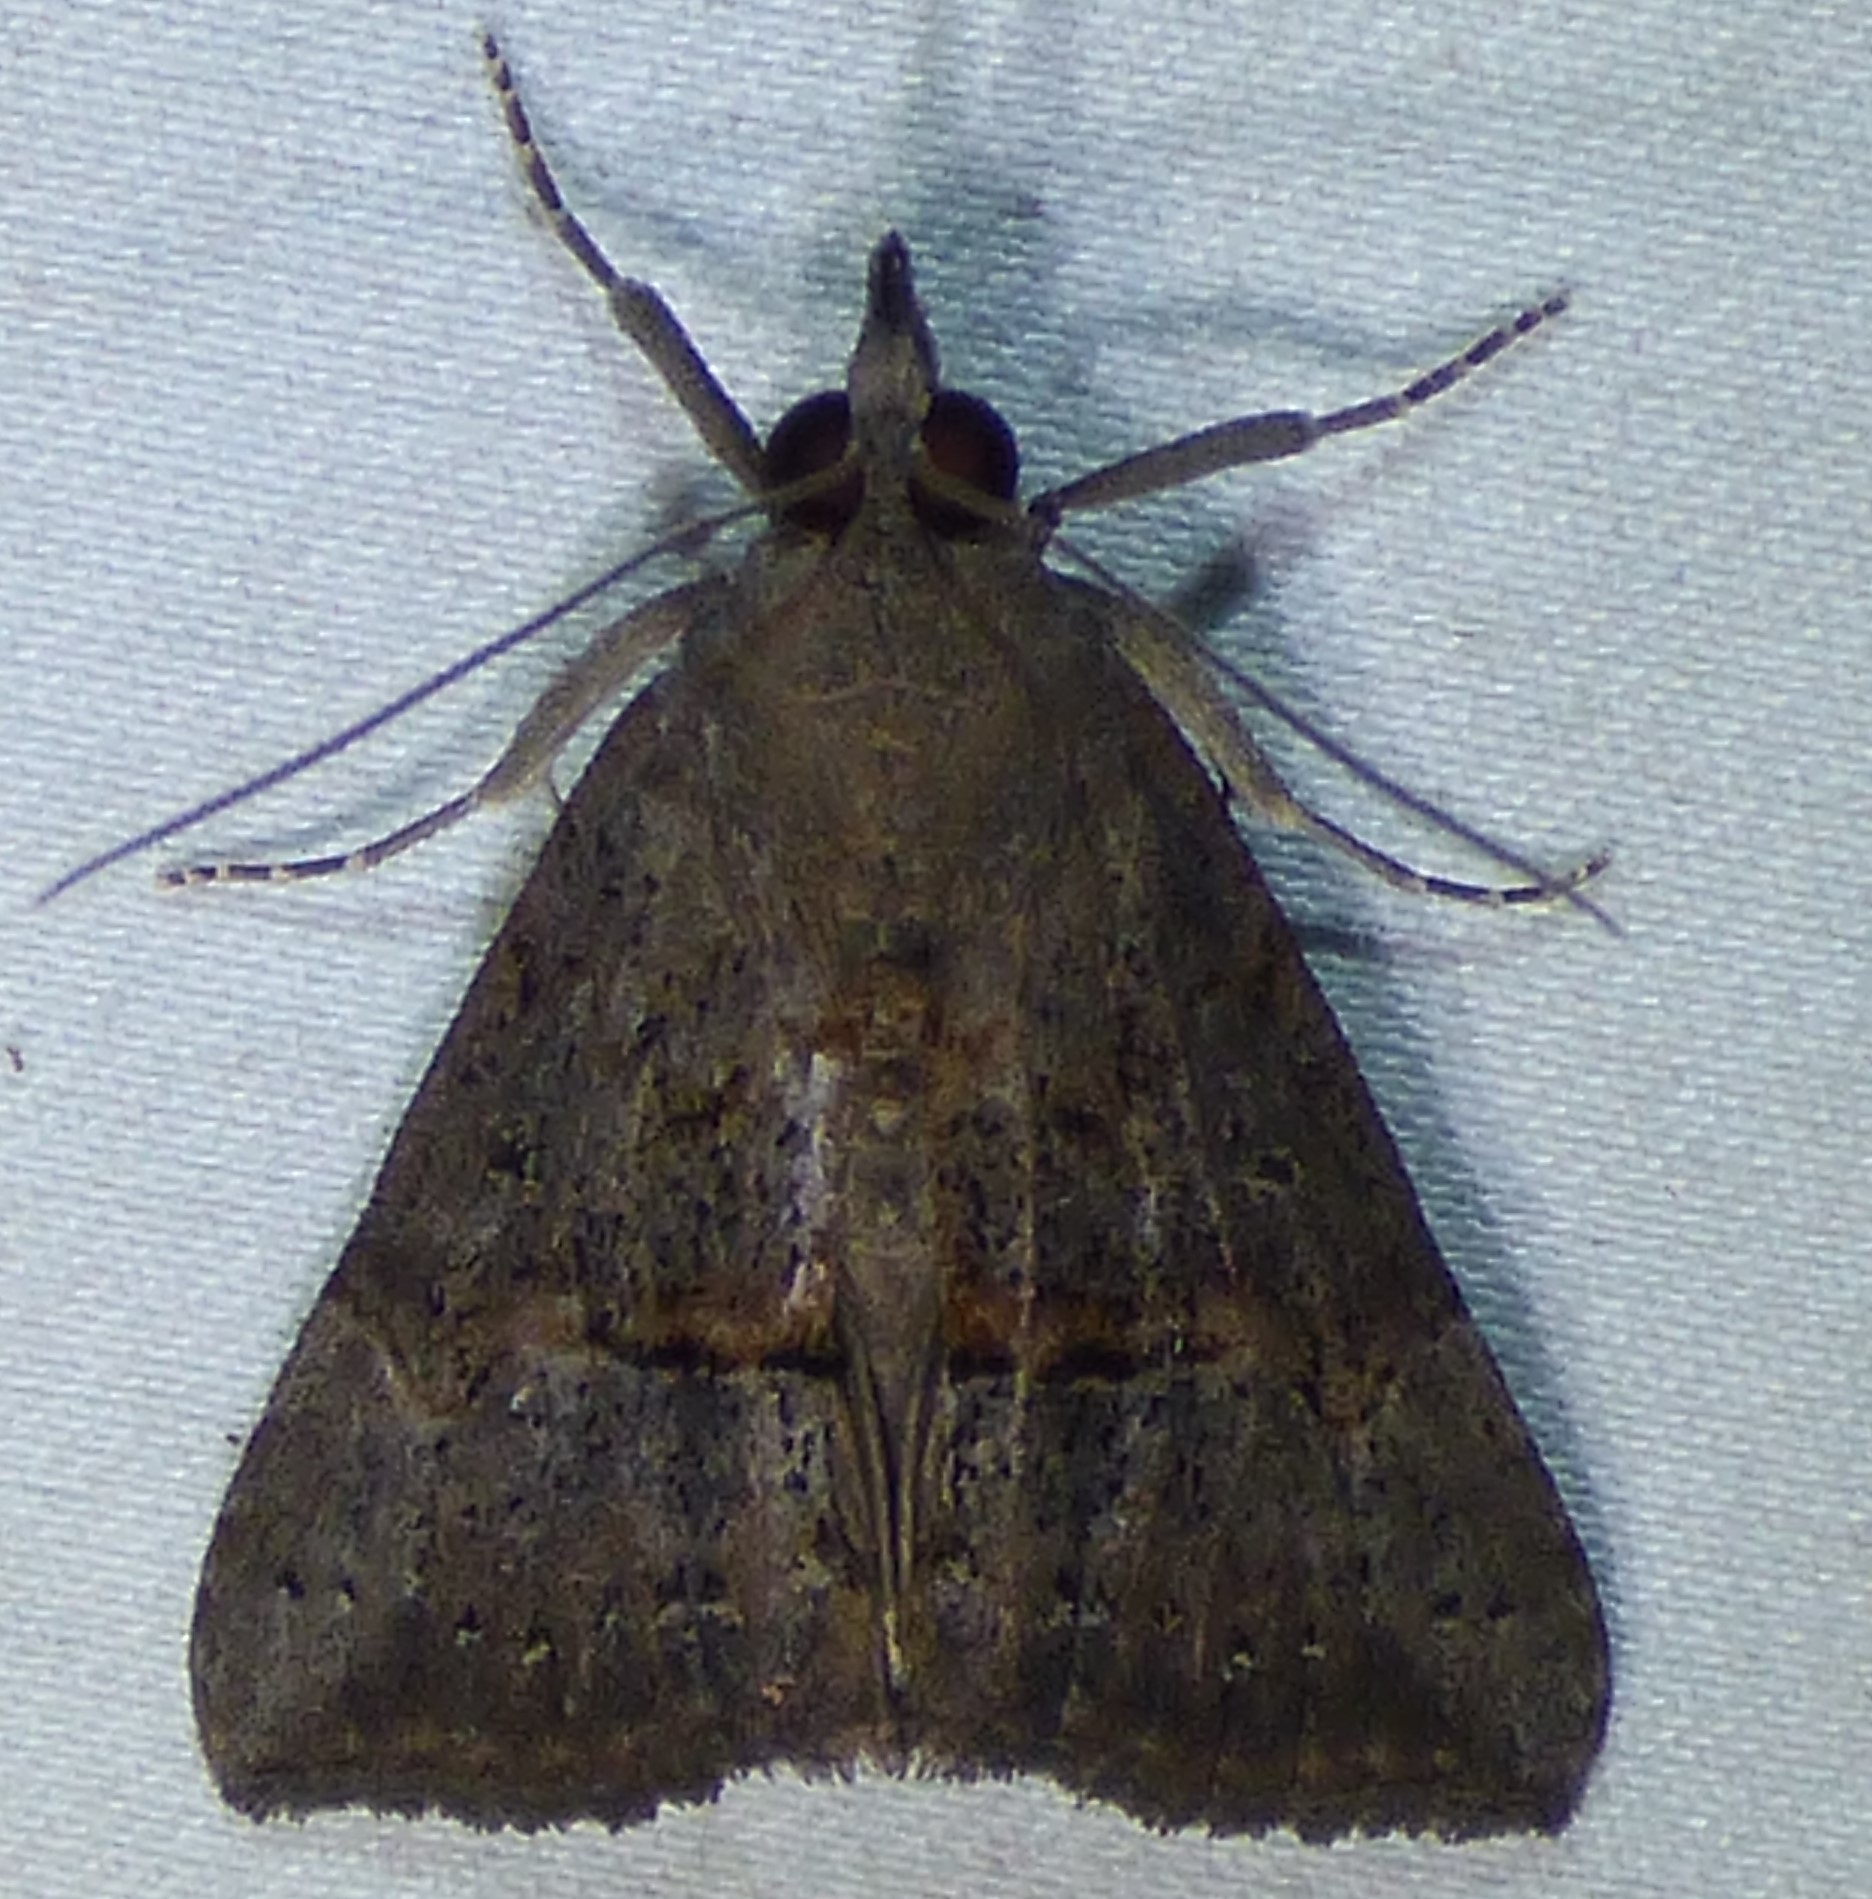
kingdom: Animalia
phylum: Arthropoda
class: Insecta
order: Lepidoptera
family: Erebidae
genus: Hypena
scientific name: Hypena scabra
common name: Green cloverworm
